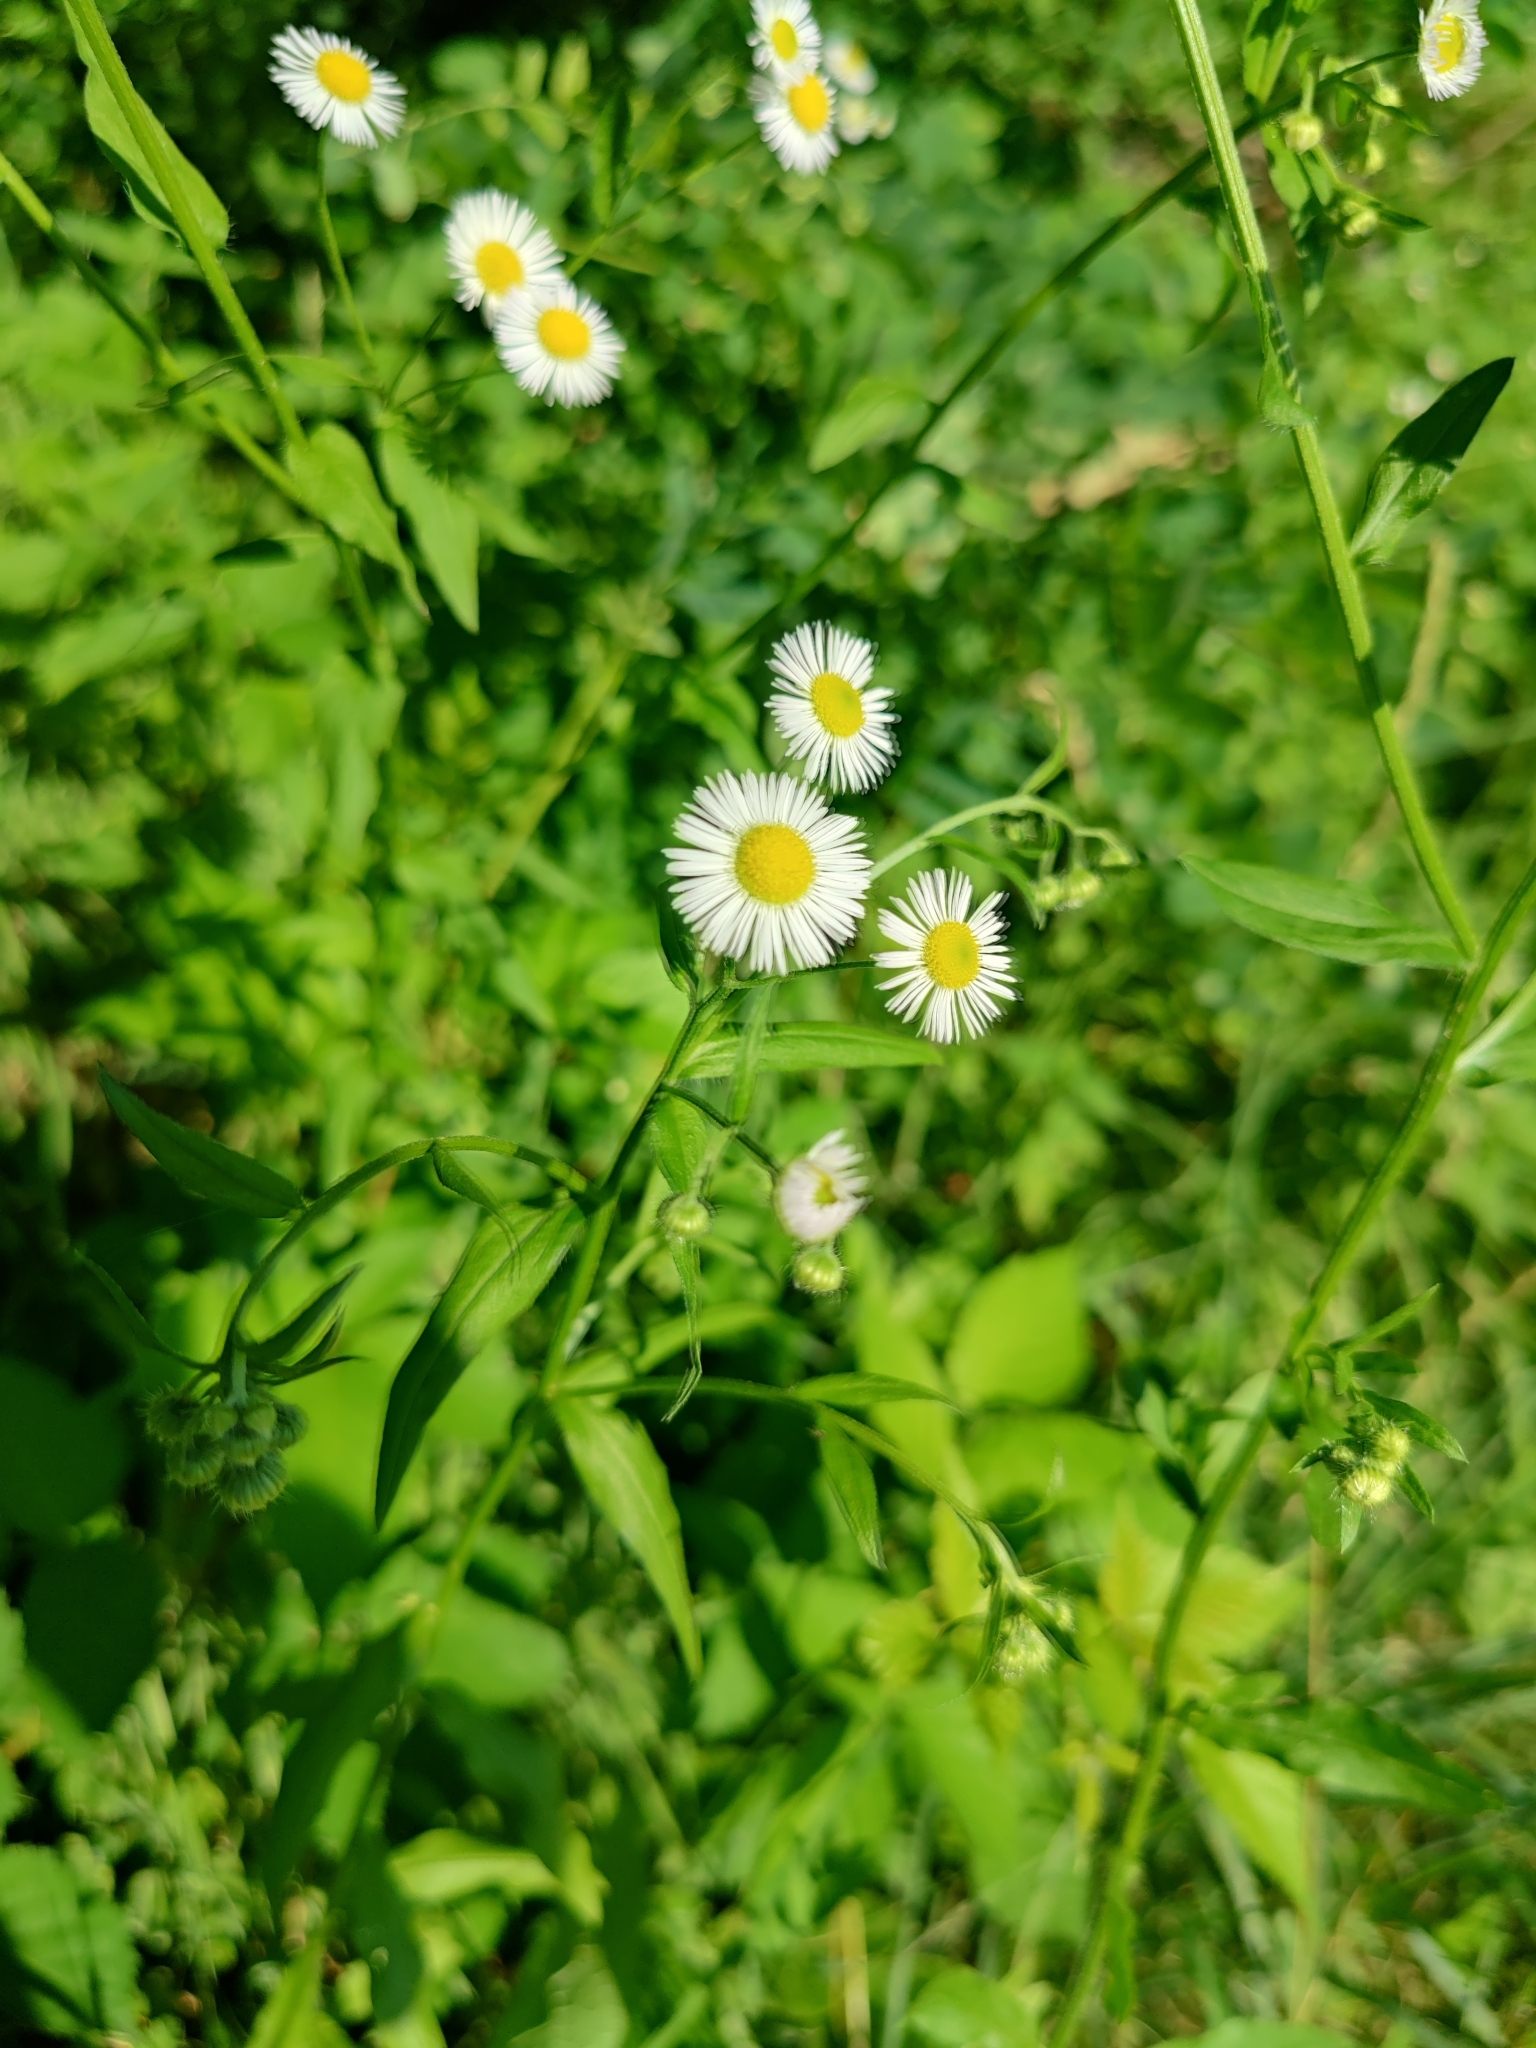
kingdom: Plantae
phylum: Tracheophyta
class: Magnoliopsida
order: Asterales
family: Asteraceae
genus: Erigeron
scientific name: Erigeron annuus
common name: Tall fleabane
